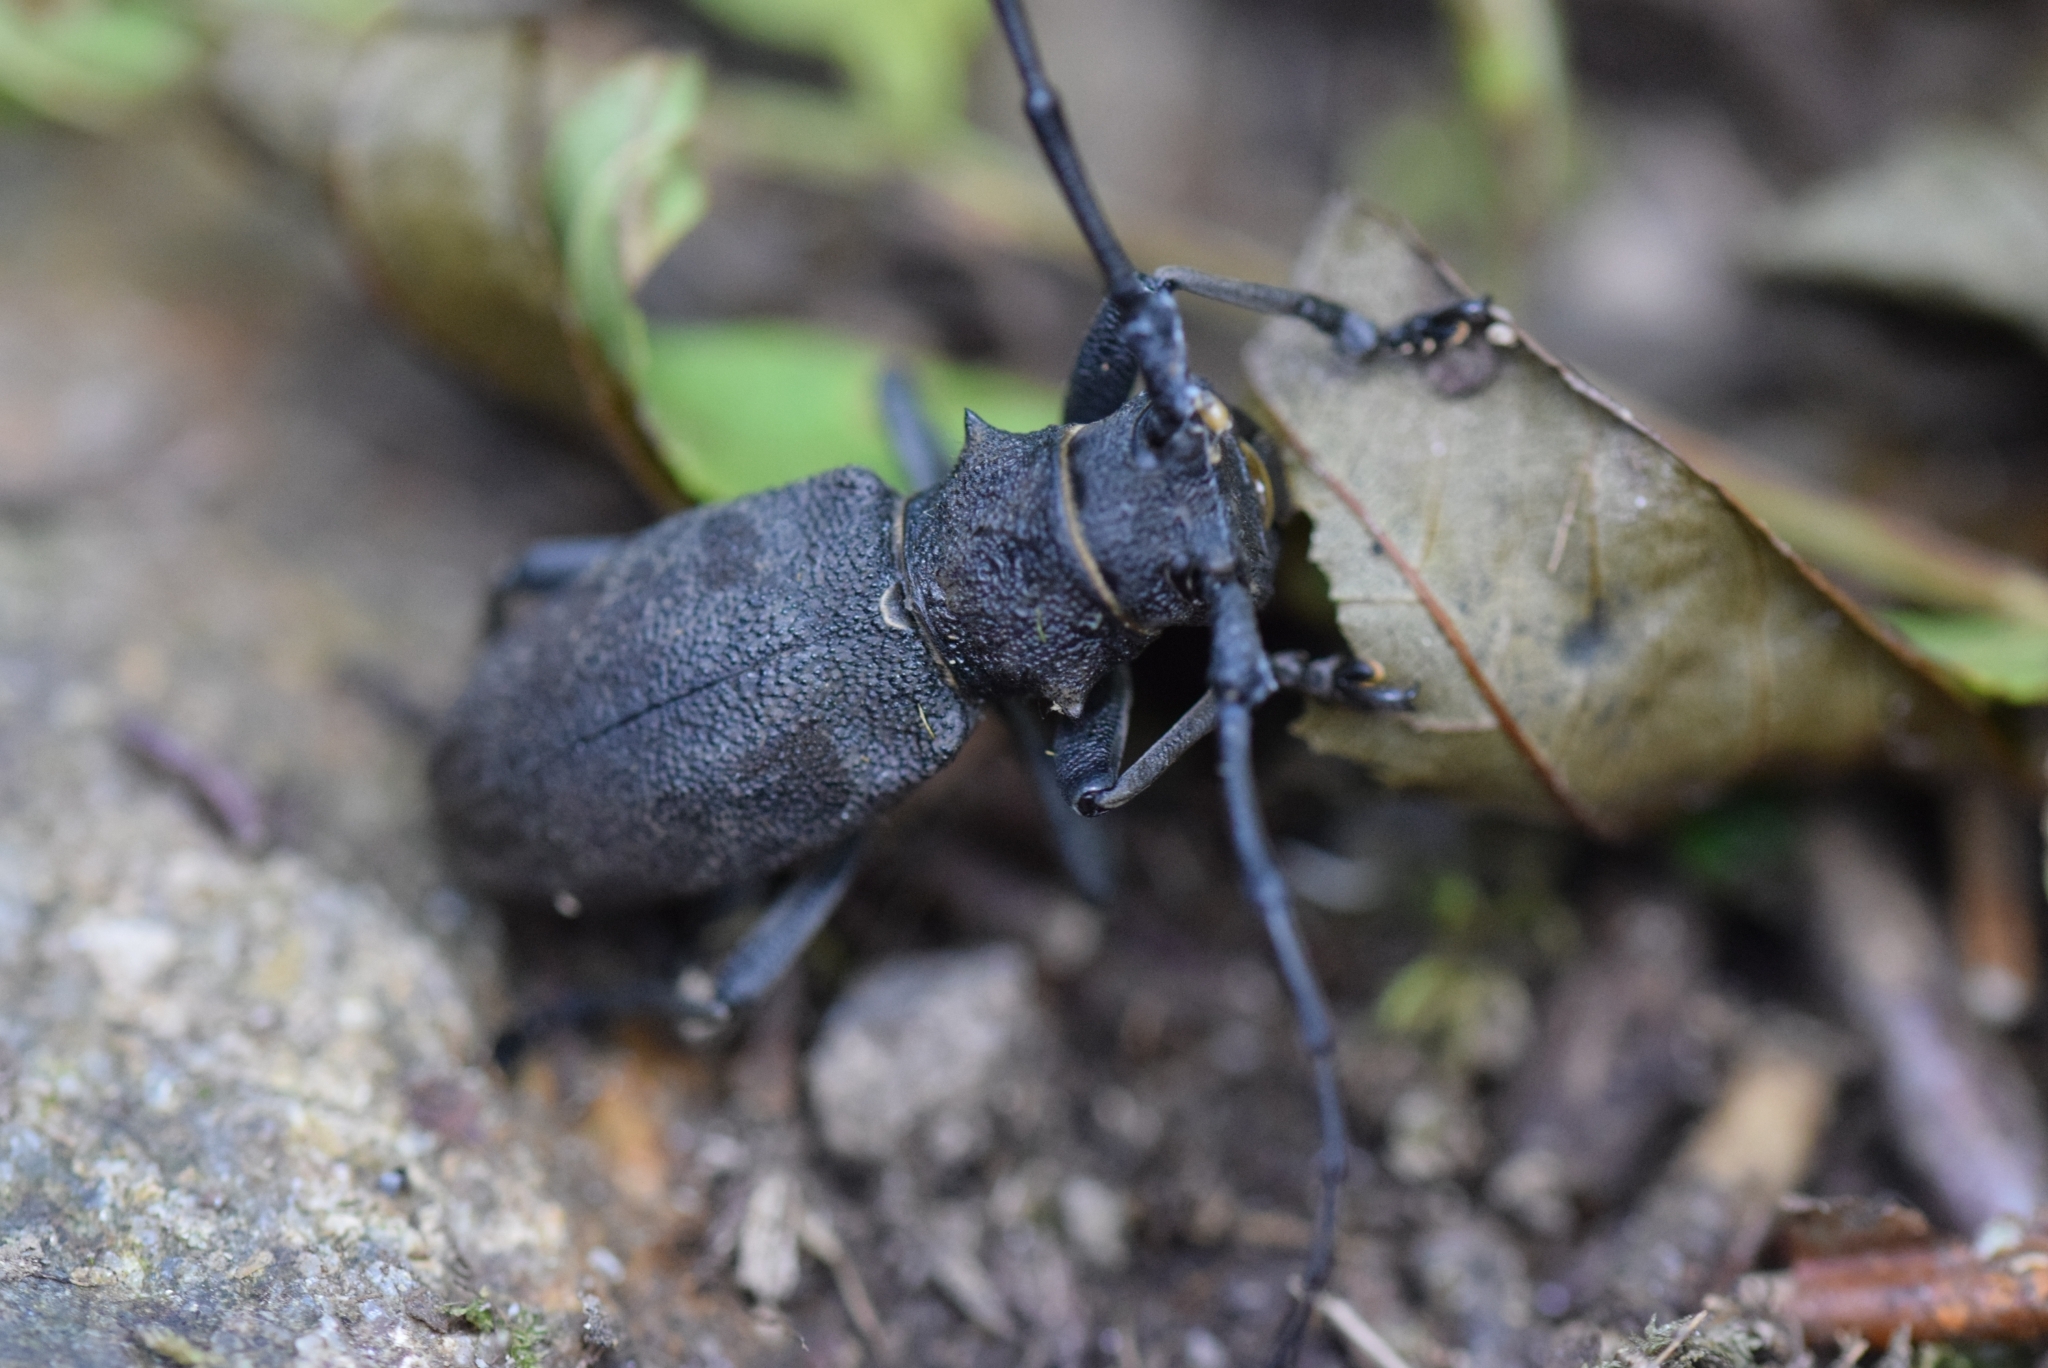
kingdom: Animalia
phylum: Arthropoda
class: Insecta
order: Coleoptera
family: Cerambycidae
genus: Morimus
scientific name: Morimus asper
